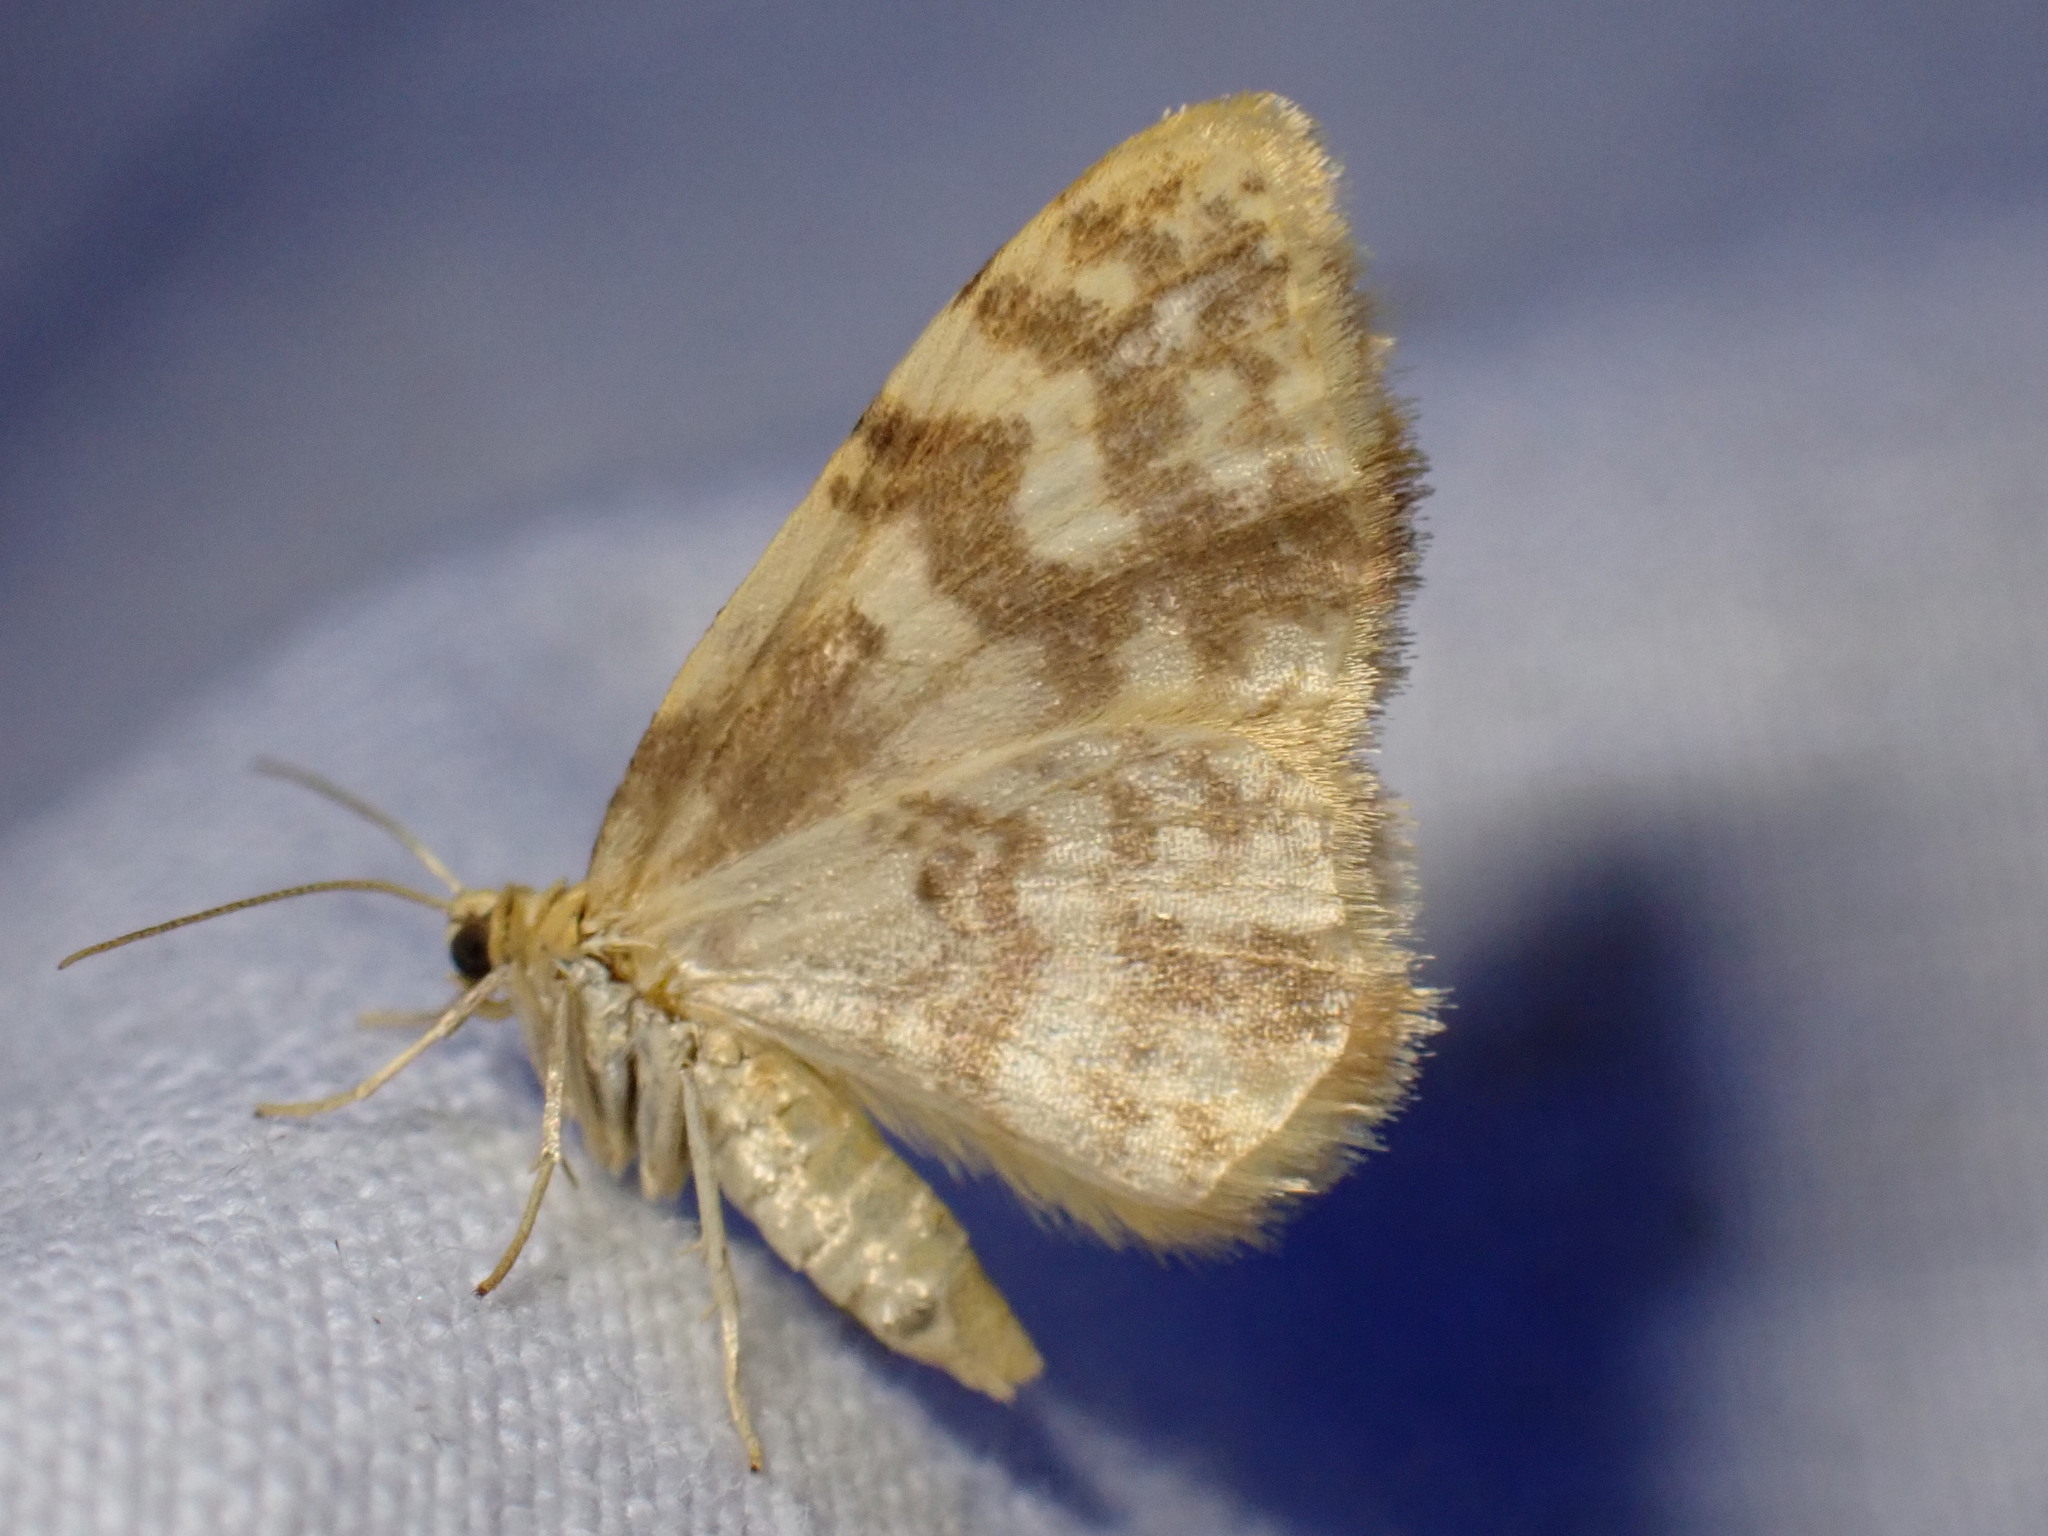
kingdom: Animalia
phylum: Arthropoda
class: Insecta
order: Lepidoptera
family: Geometridae
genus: Hydrelia
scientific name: Hydrelia flammeolaria
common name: Small yellow wave
